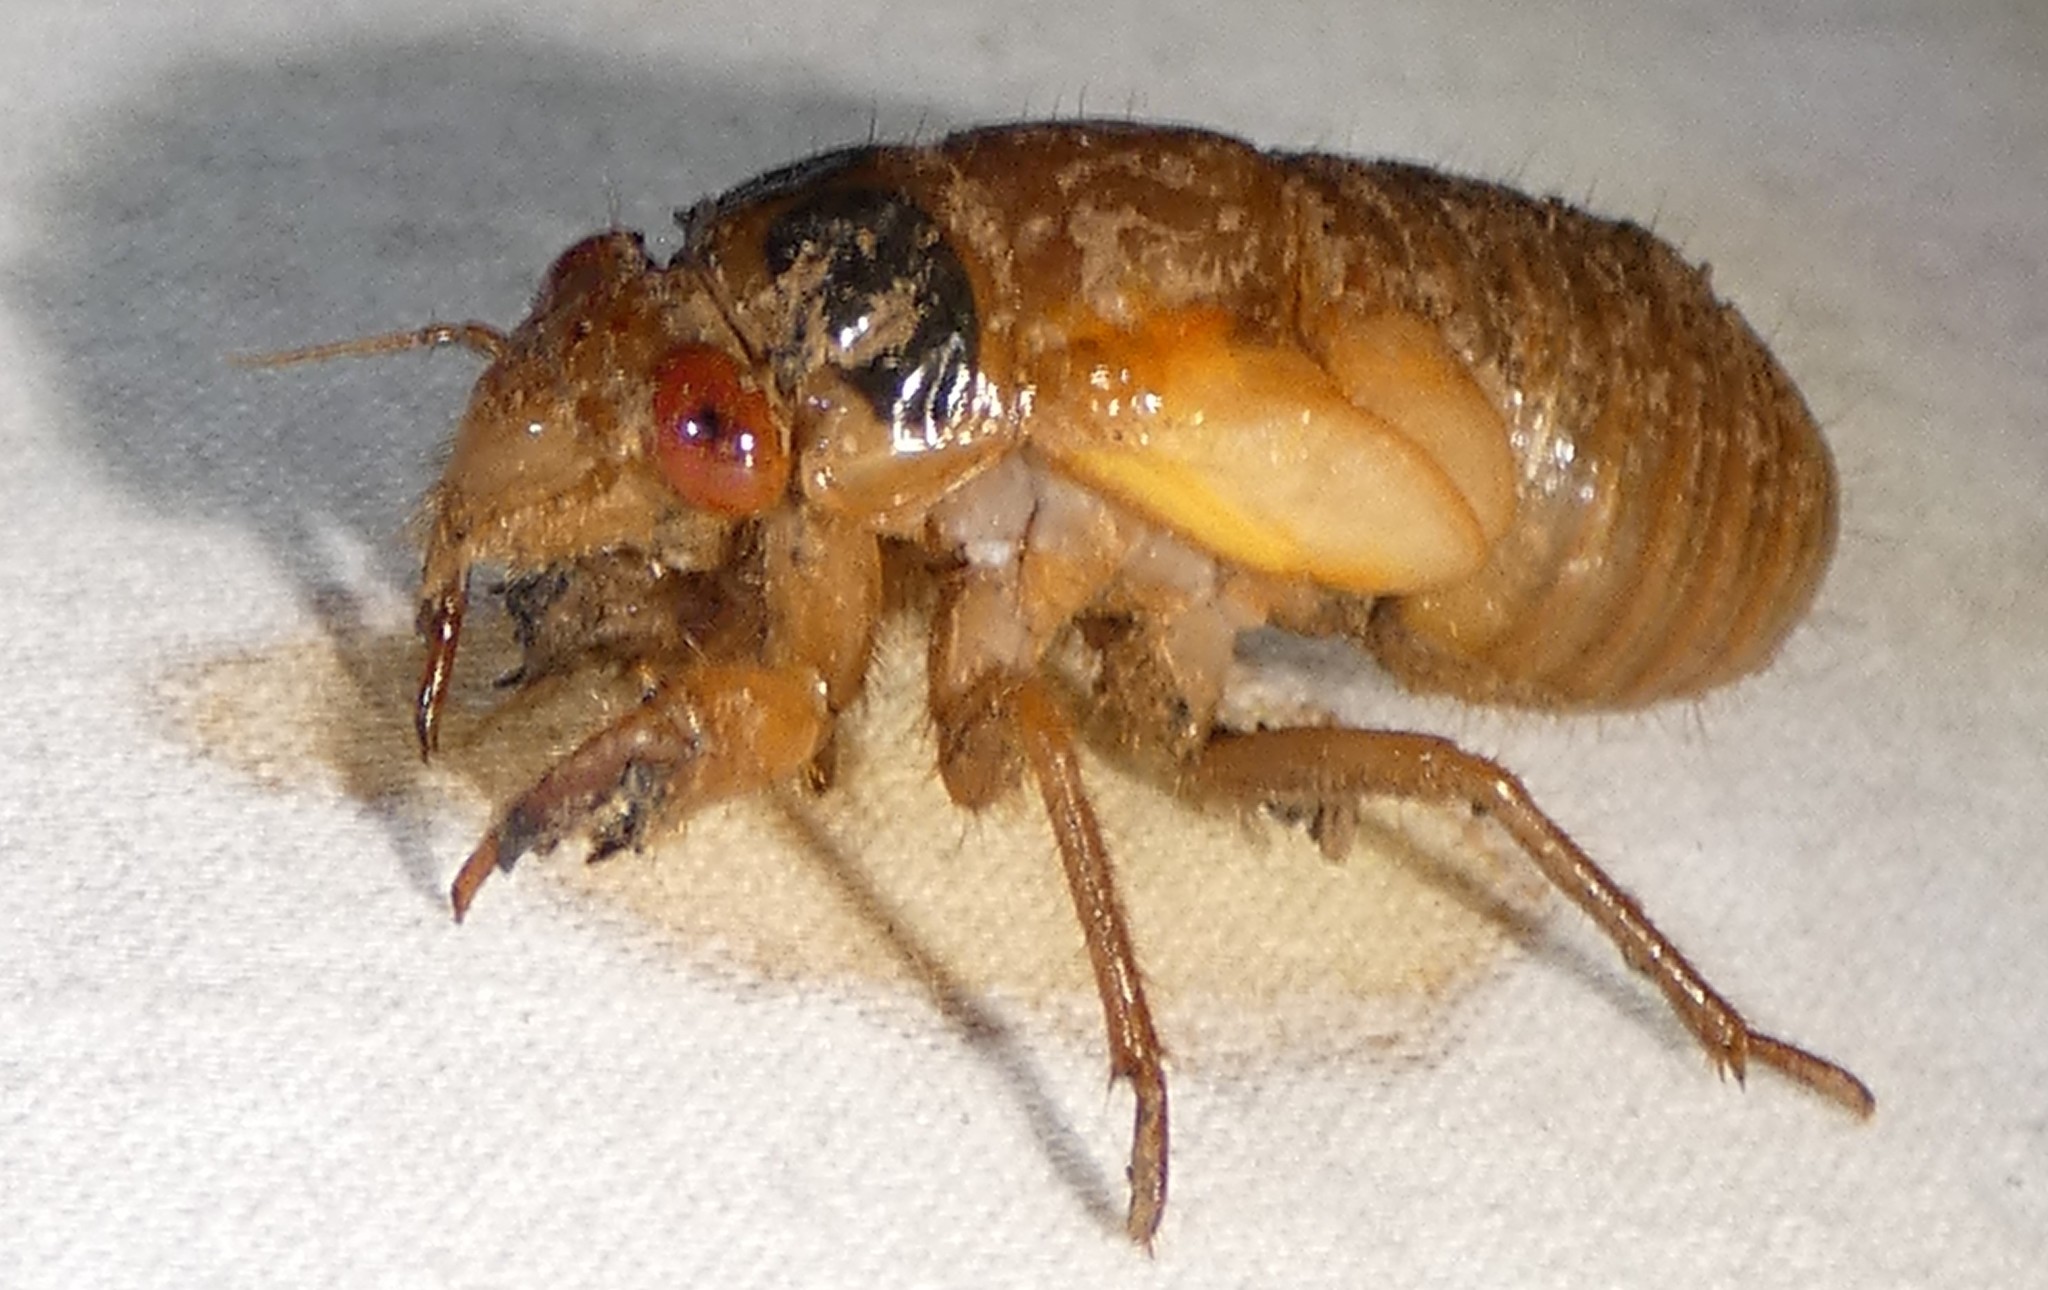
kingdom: Animalia
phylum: Arthropoda
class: Insecta
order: Hemiptera
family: Cicadidae
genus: Magicicada
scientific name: Magicicada
